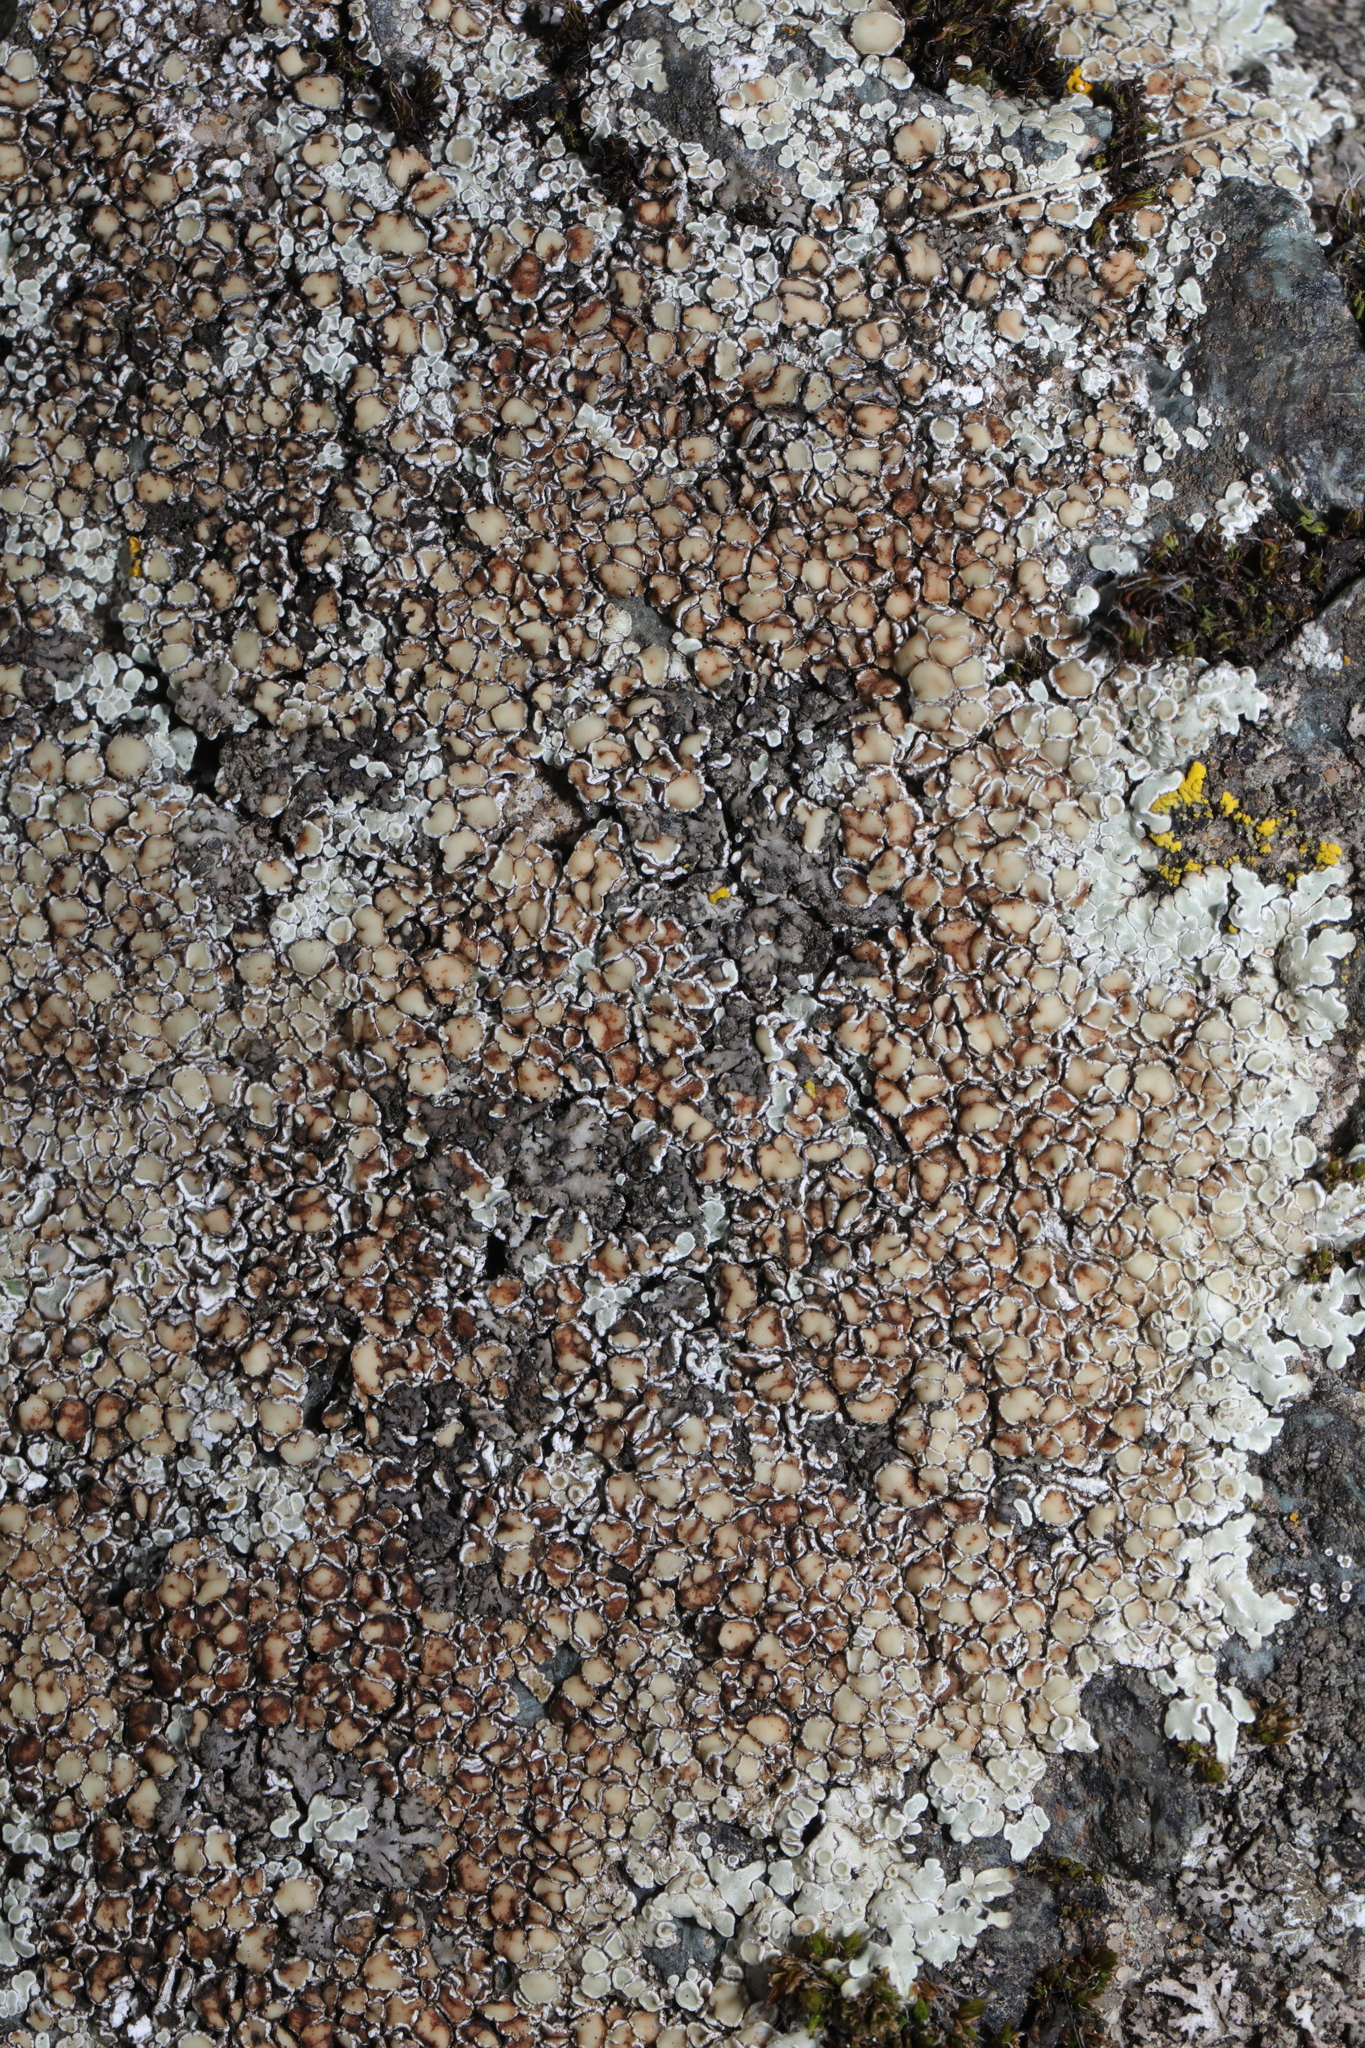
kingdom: Fungi
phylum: Ascomycota
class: Lecanoromycetes
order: Lecanorales
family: Lecanoraceae
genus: Protoparmeliopsis
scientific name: Protoparmeliopsis muralis
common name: Stonewall rim lichen
